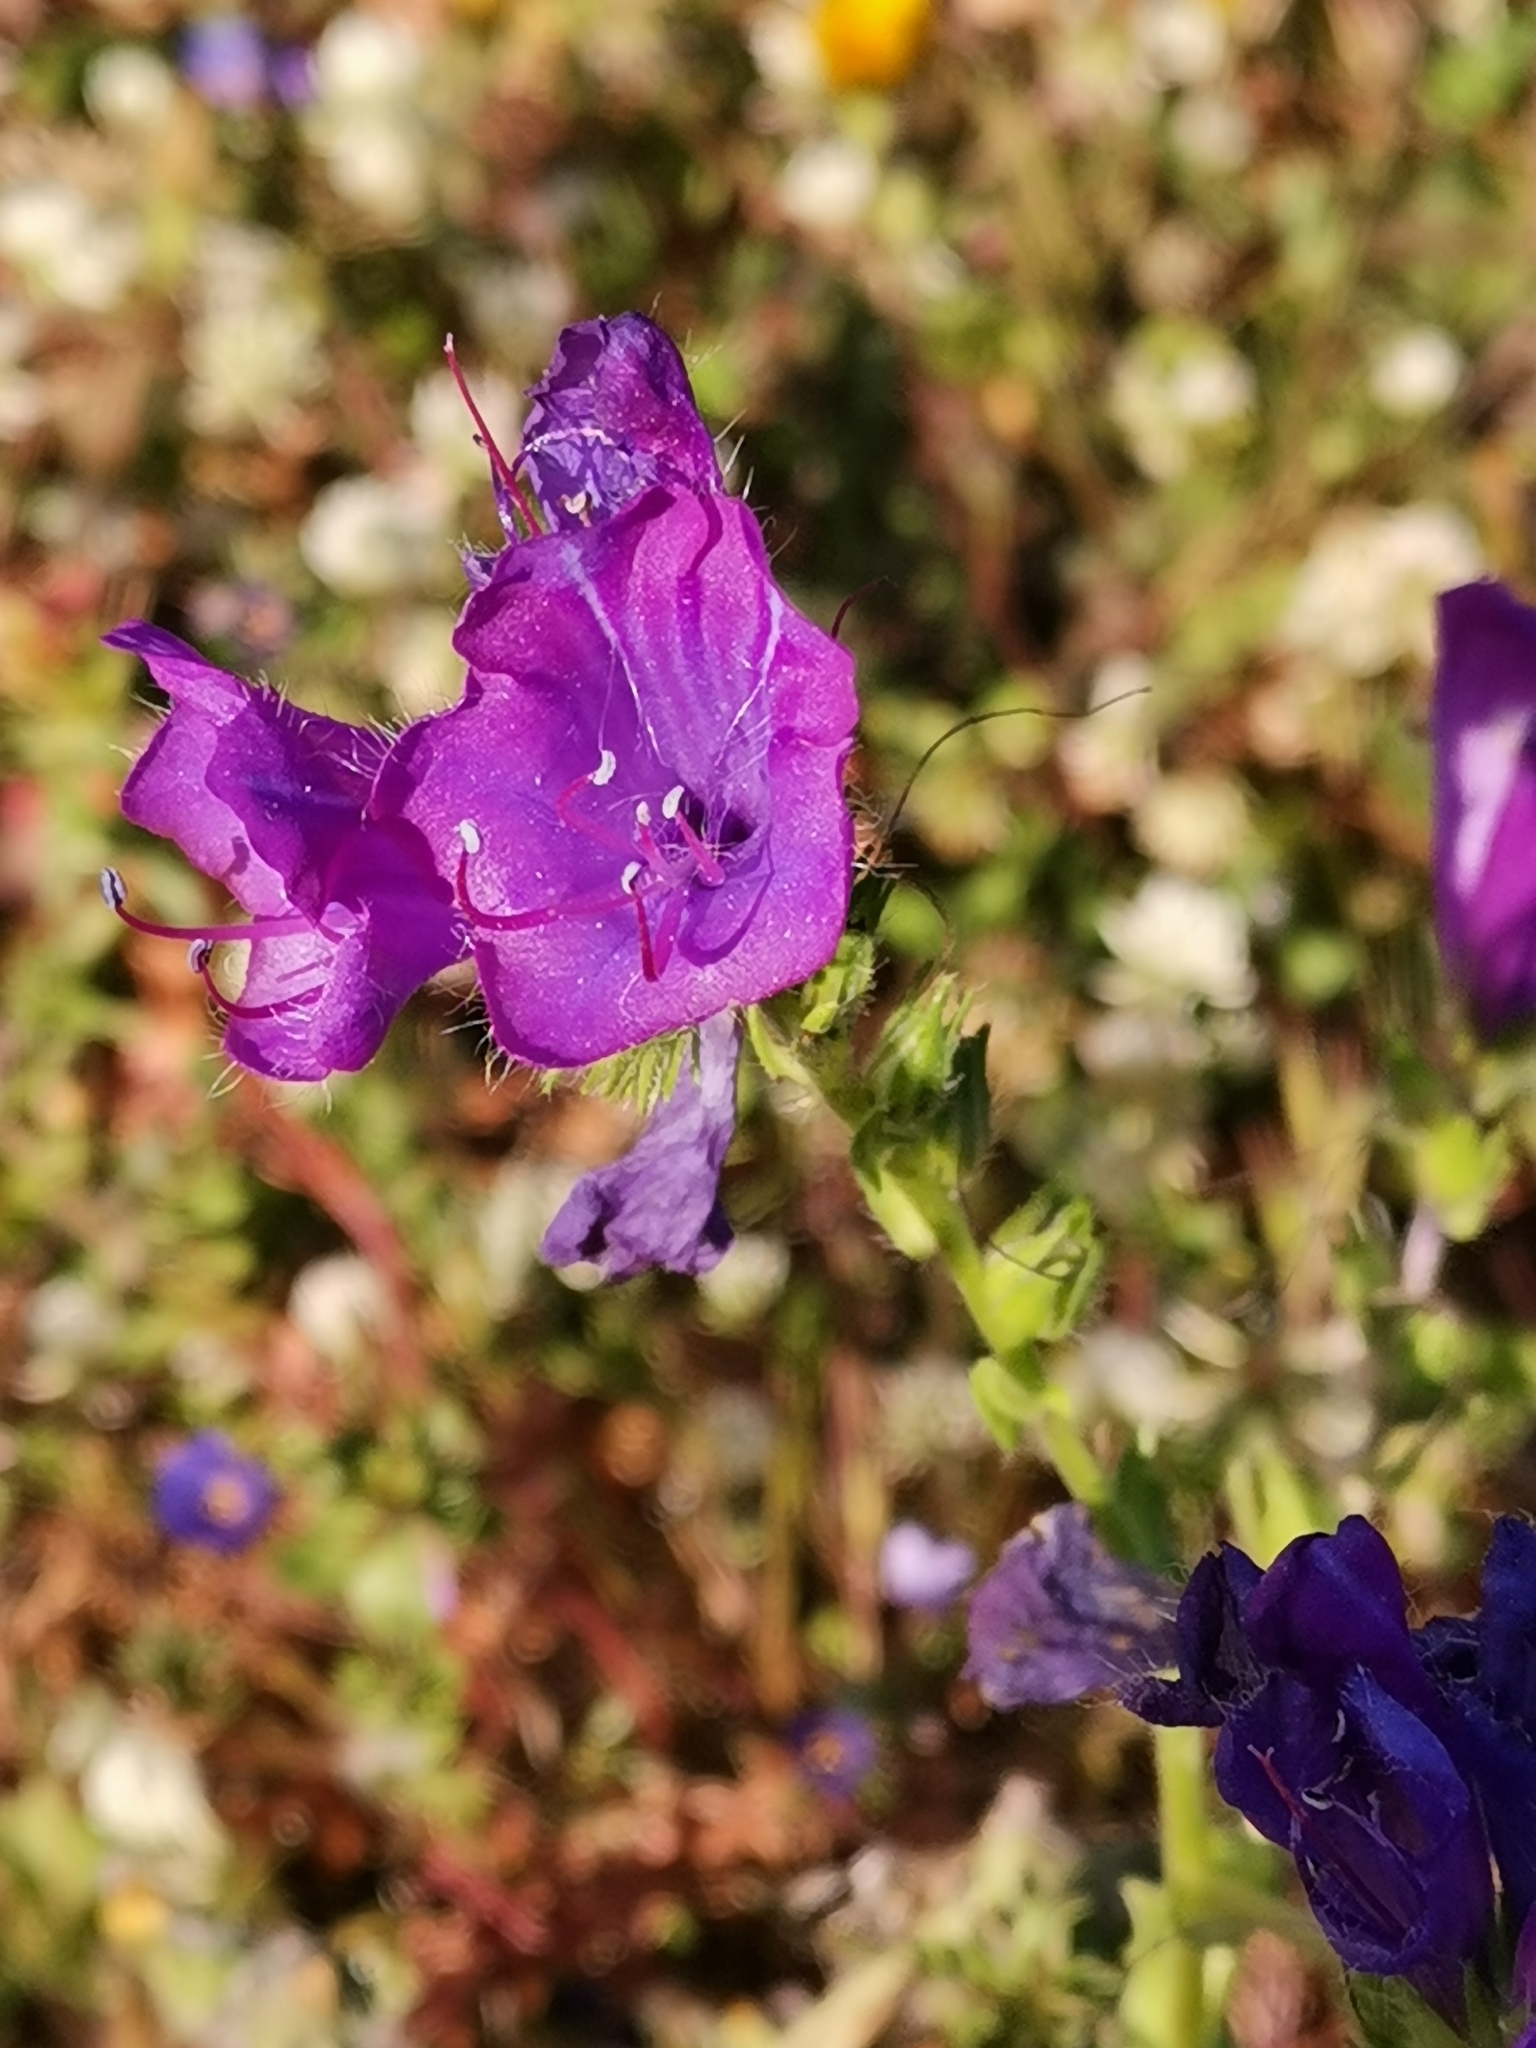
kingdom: Plantae
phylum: Tracheophyta
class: Magnoliopsida
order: Boraginales
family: Boraginaceae
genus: Echium
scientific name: Echium plantagineum
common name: Purple viper's-bugloss
